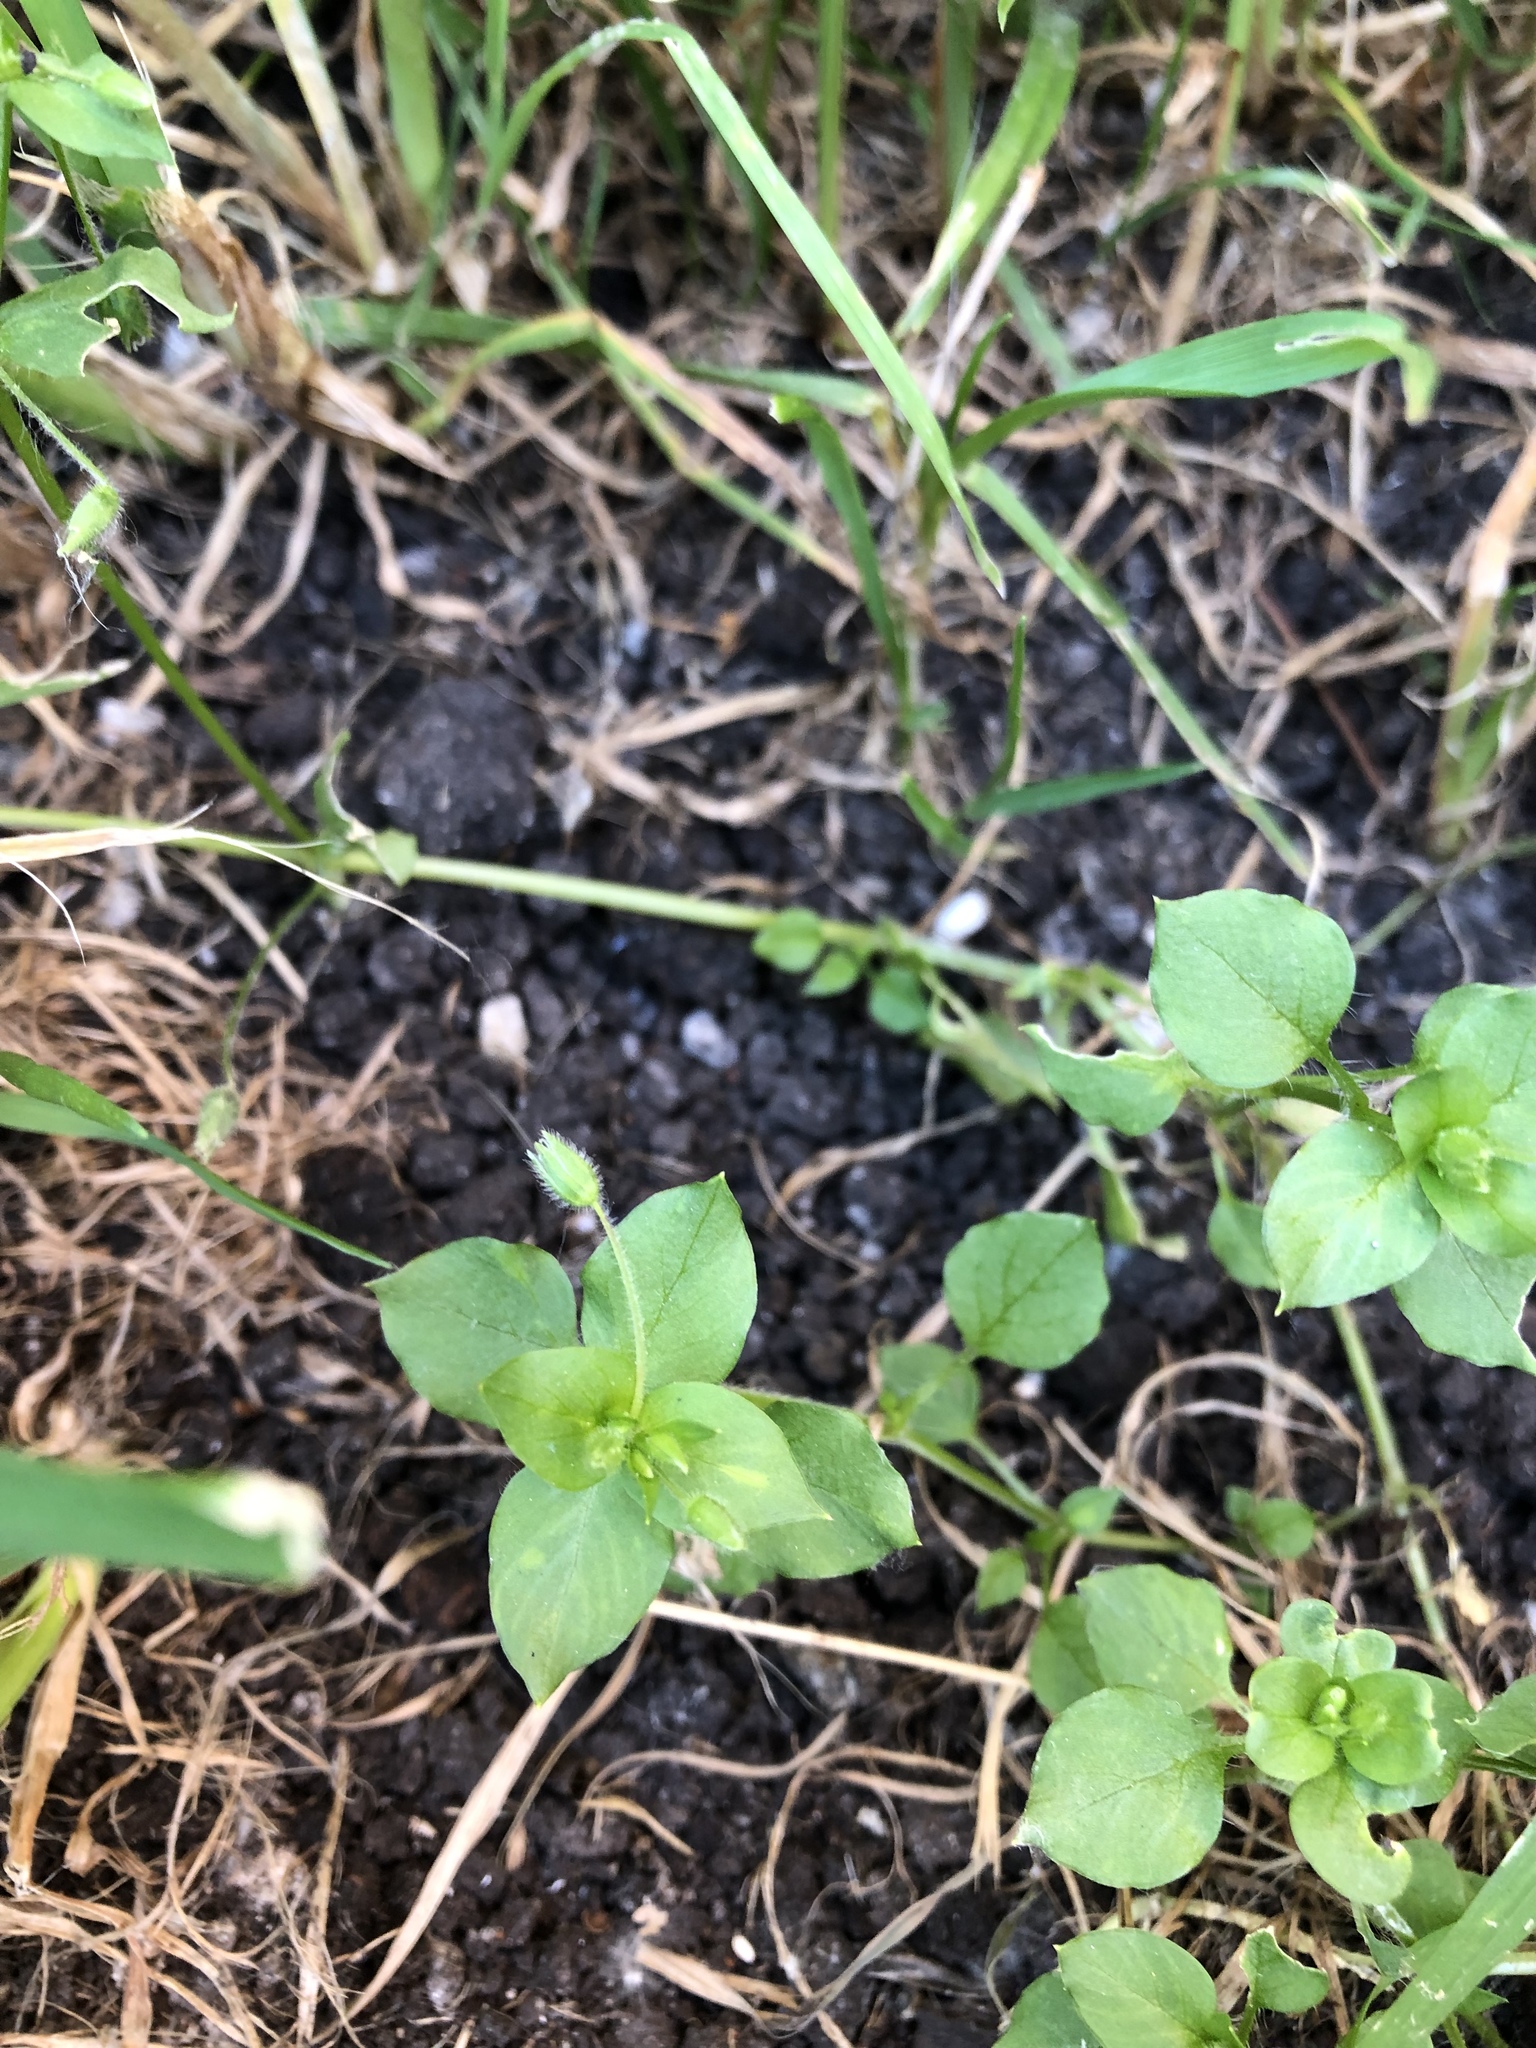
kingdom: Plantae
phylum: Tracheophyta
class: Magnoliopsida
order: Caryophyllales
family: Caryophyllaceae
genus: Stellaria
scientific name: Stellaria media
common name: Common chickweed
